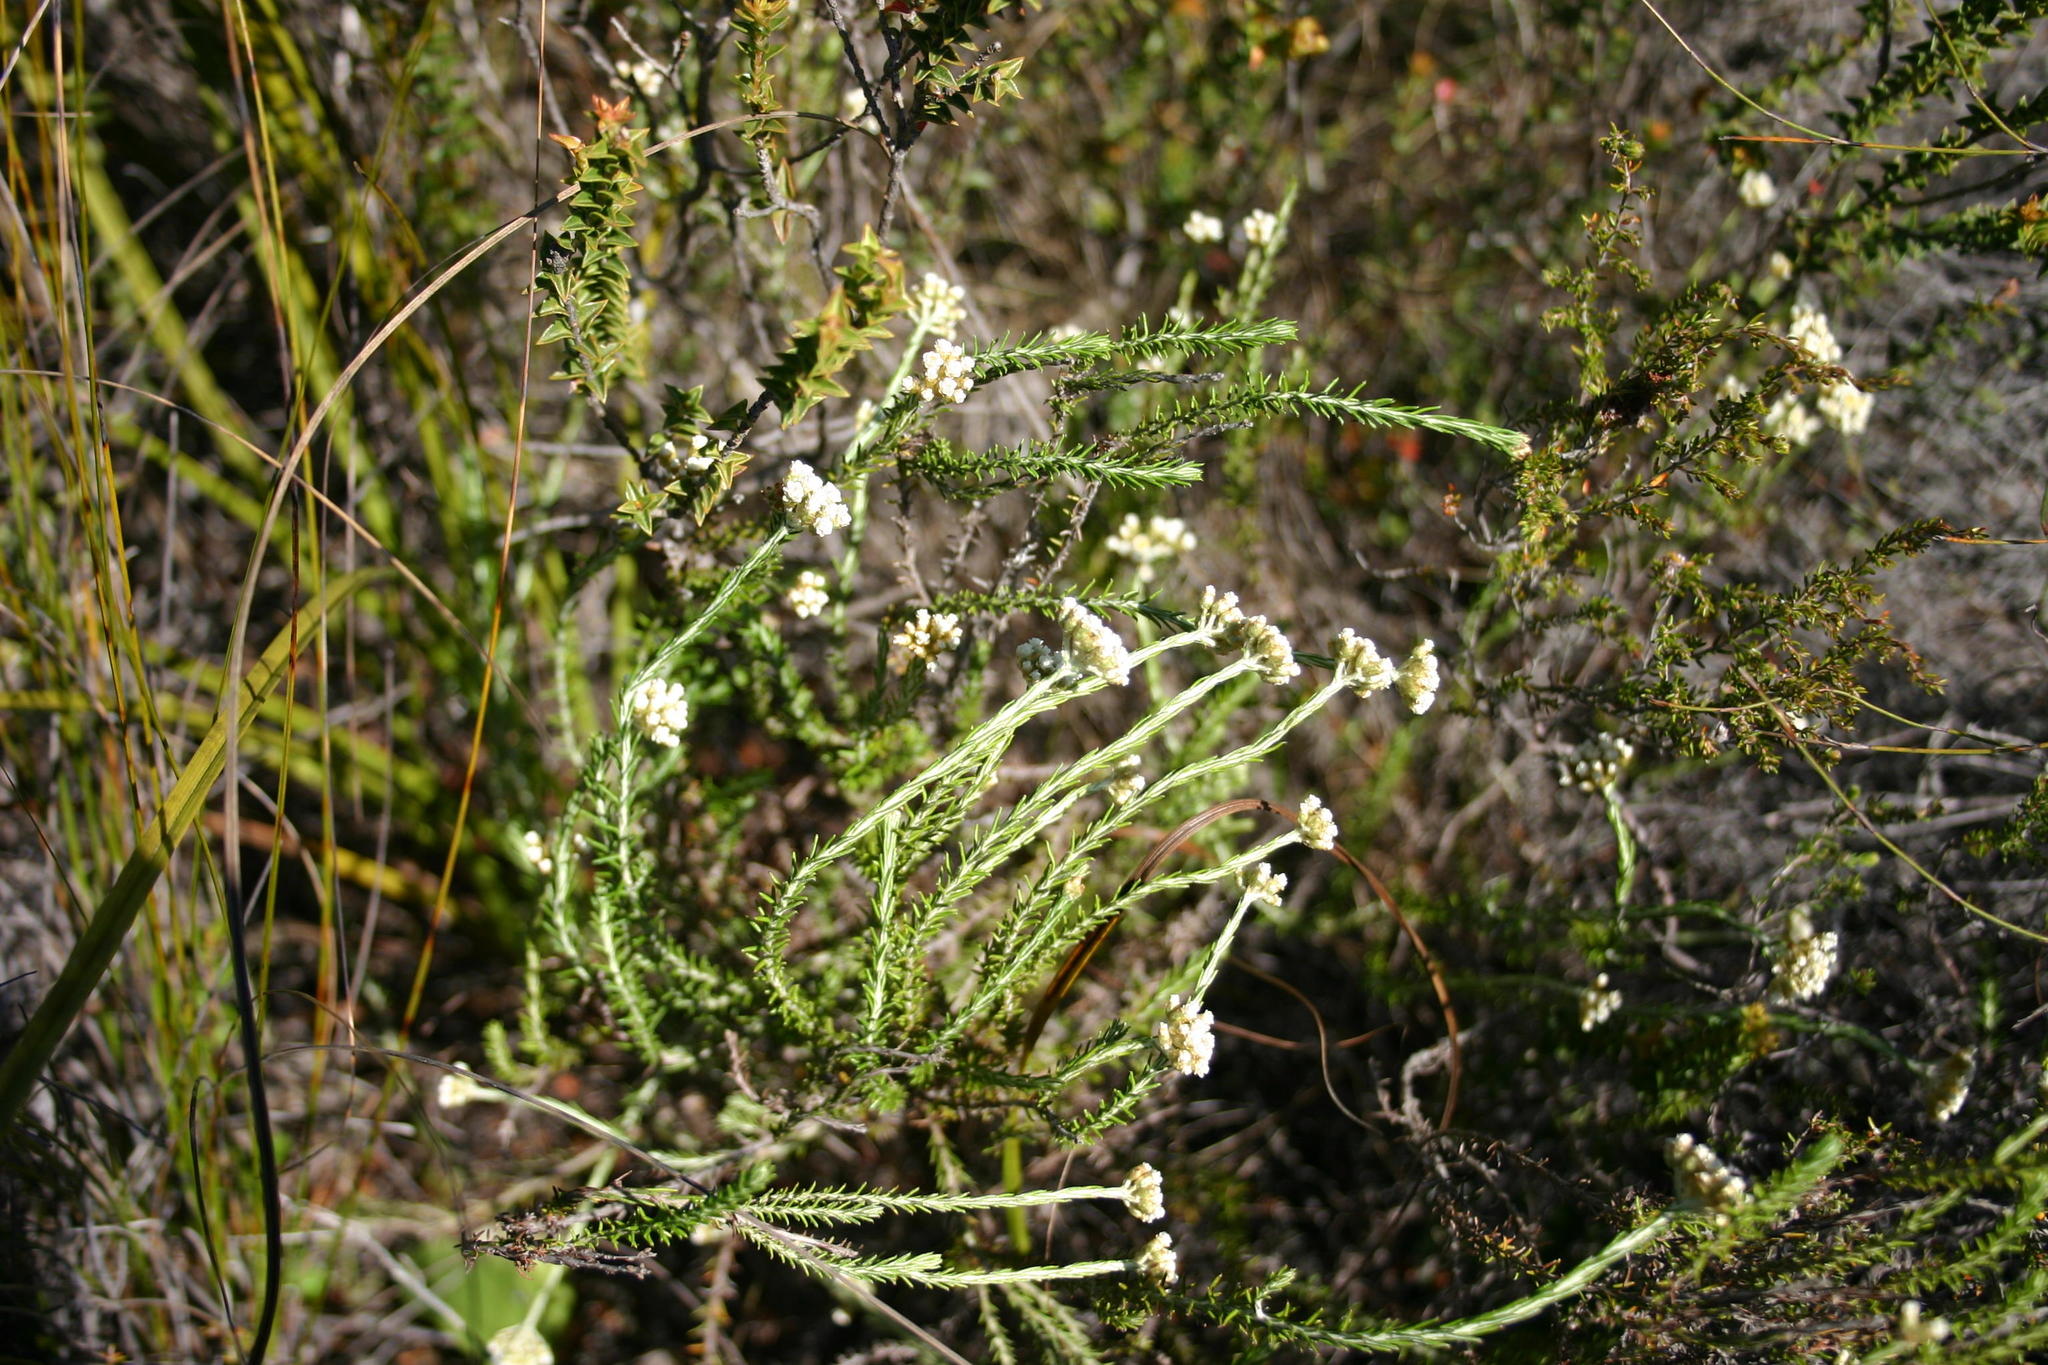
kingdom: Plantae
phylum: Tracheophyta
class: Magnoliopsida
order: Asterales
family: Asteraceae
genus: Helichrysum
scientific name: Helichrysum teretifolium
